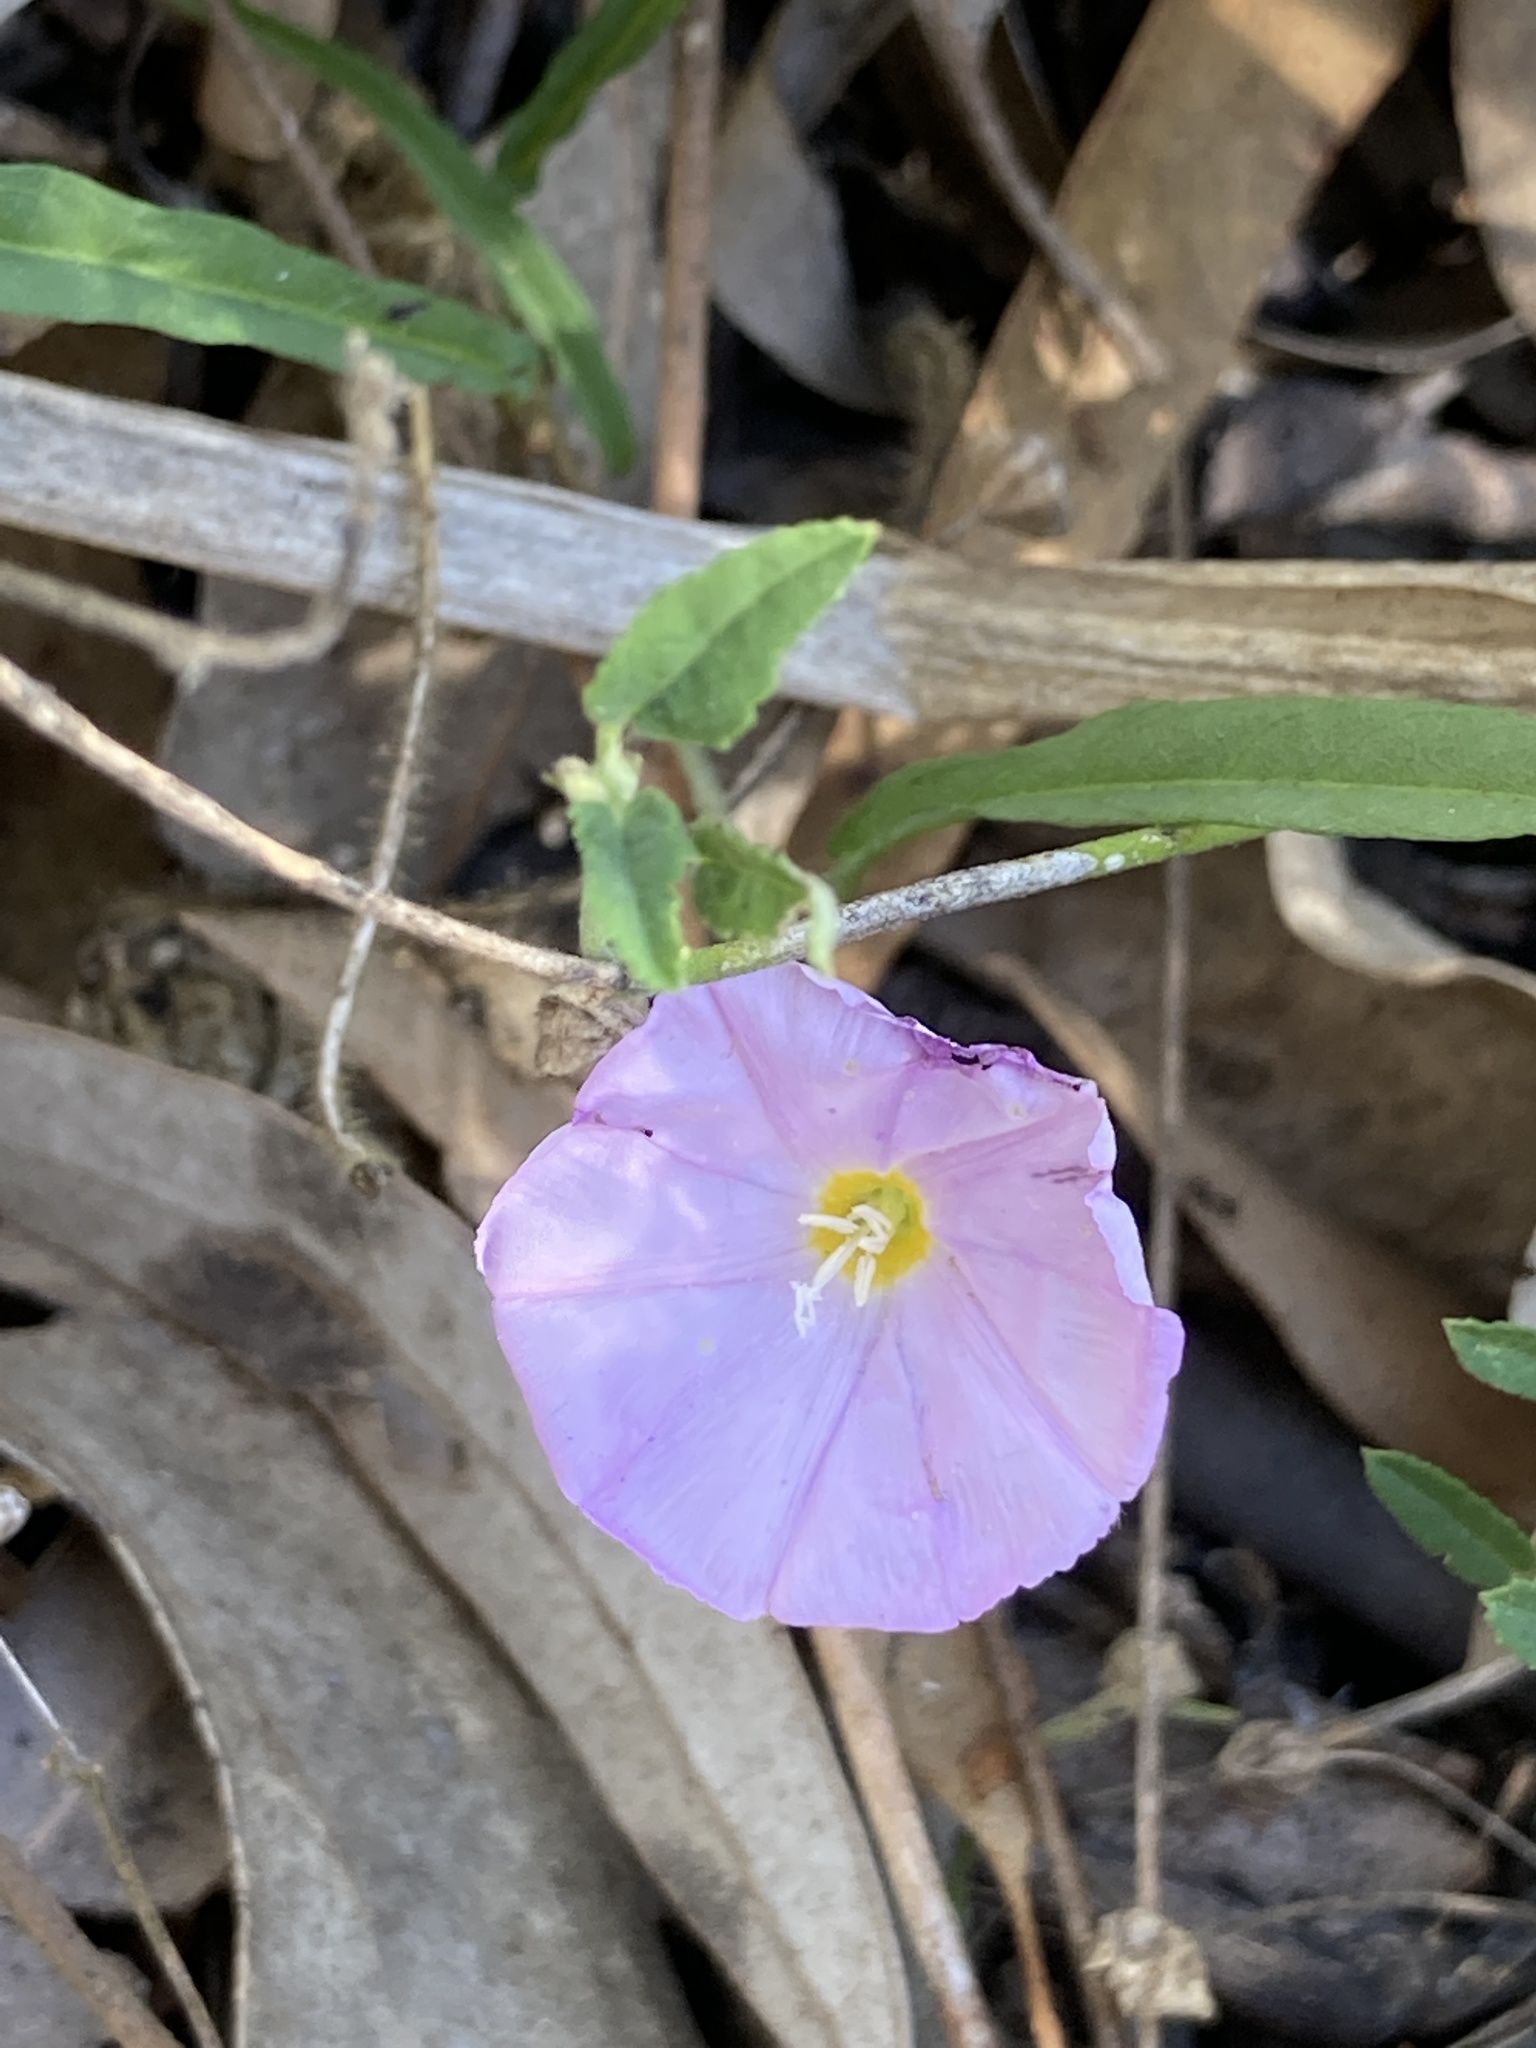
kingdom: Plantae
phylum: Tracheophyta
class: Magnoliopsida
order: Solanales
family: Convolvulaceae
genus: Polymeria
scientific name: Polymeria calycina
